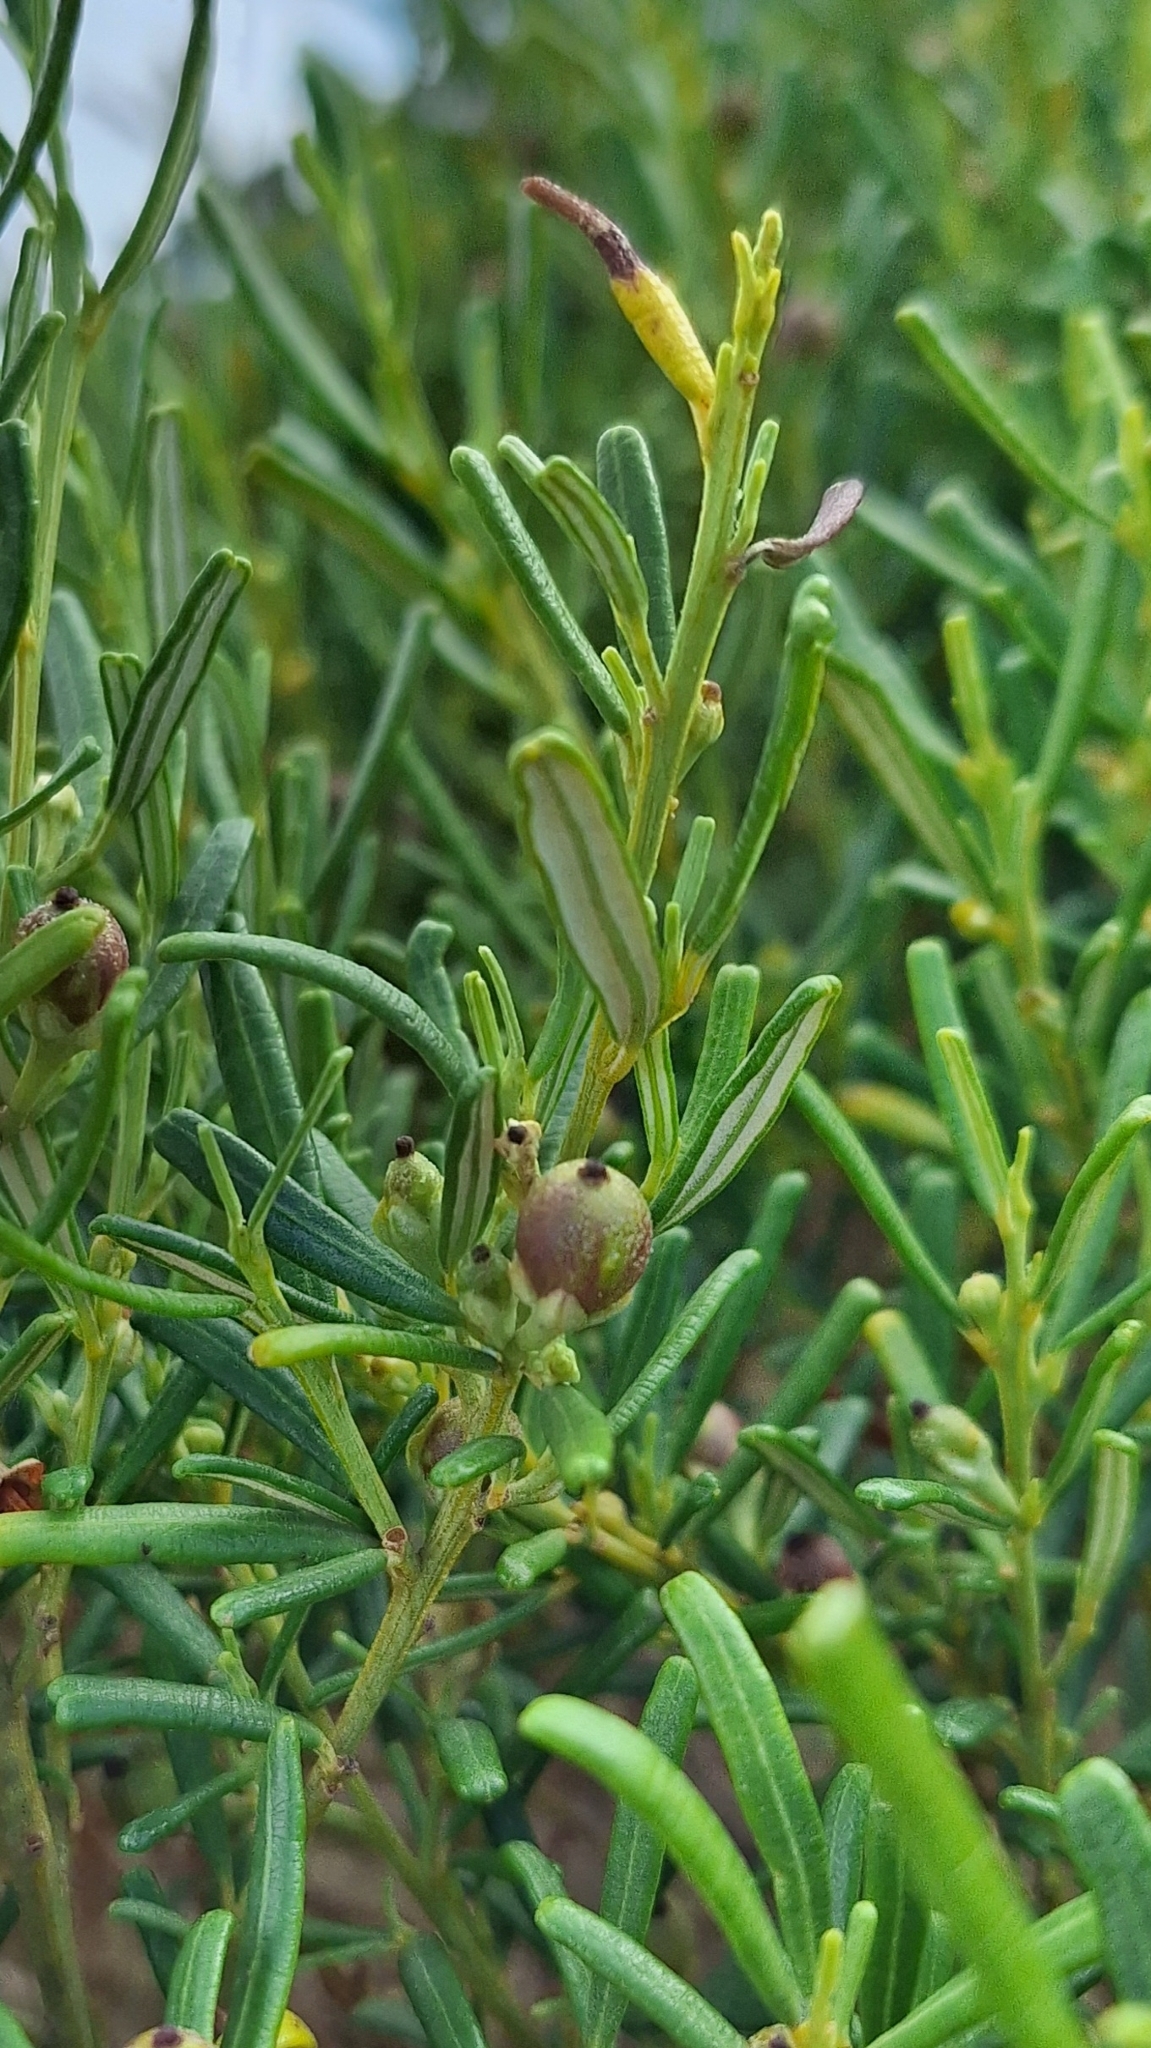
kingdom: Plantae
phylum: Tracheophyta
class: Magnoliopsida
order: Malpighiales
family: Euphorbiaceae
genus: Beyeria
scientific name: Beyeria lechenaultii
